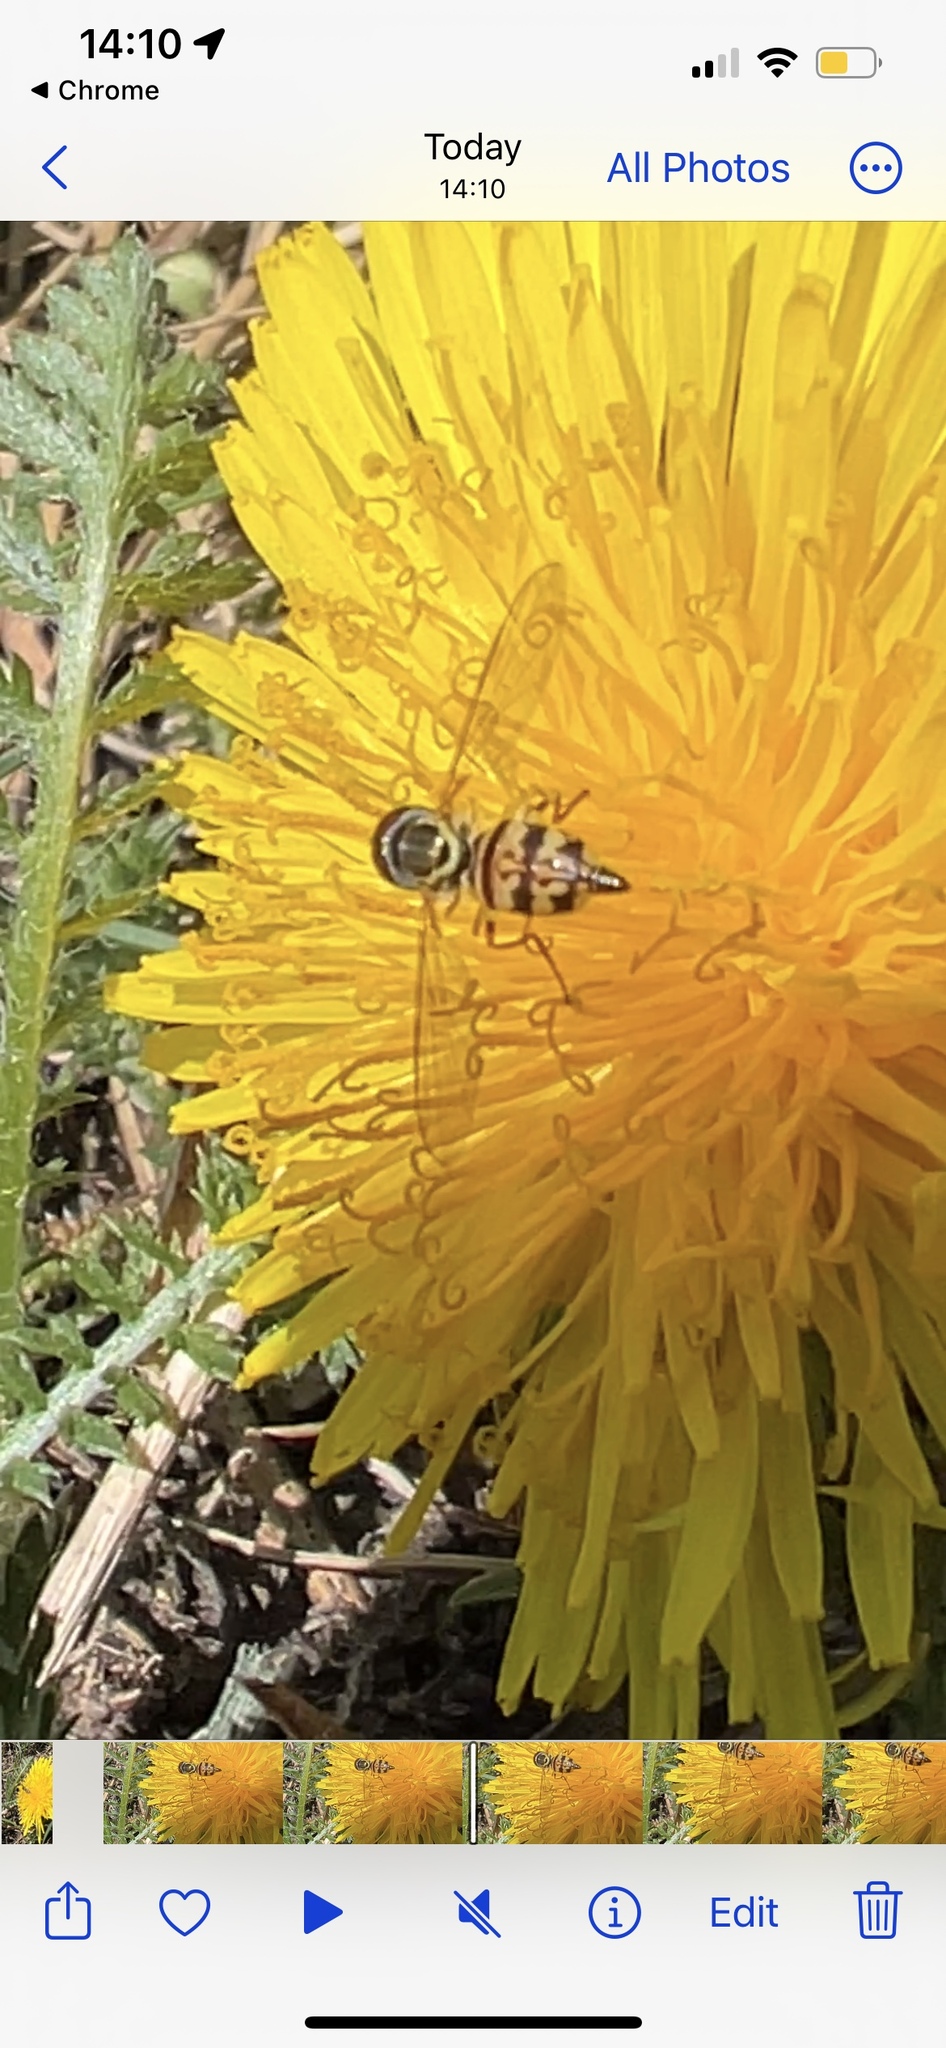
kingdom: Animalia
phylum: Arthropoda
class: Insecta
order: Diptera
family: Syrphidae
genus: Toxomerus
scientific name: Toxomerus geminatus
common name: Eastern calligrapher
